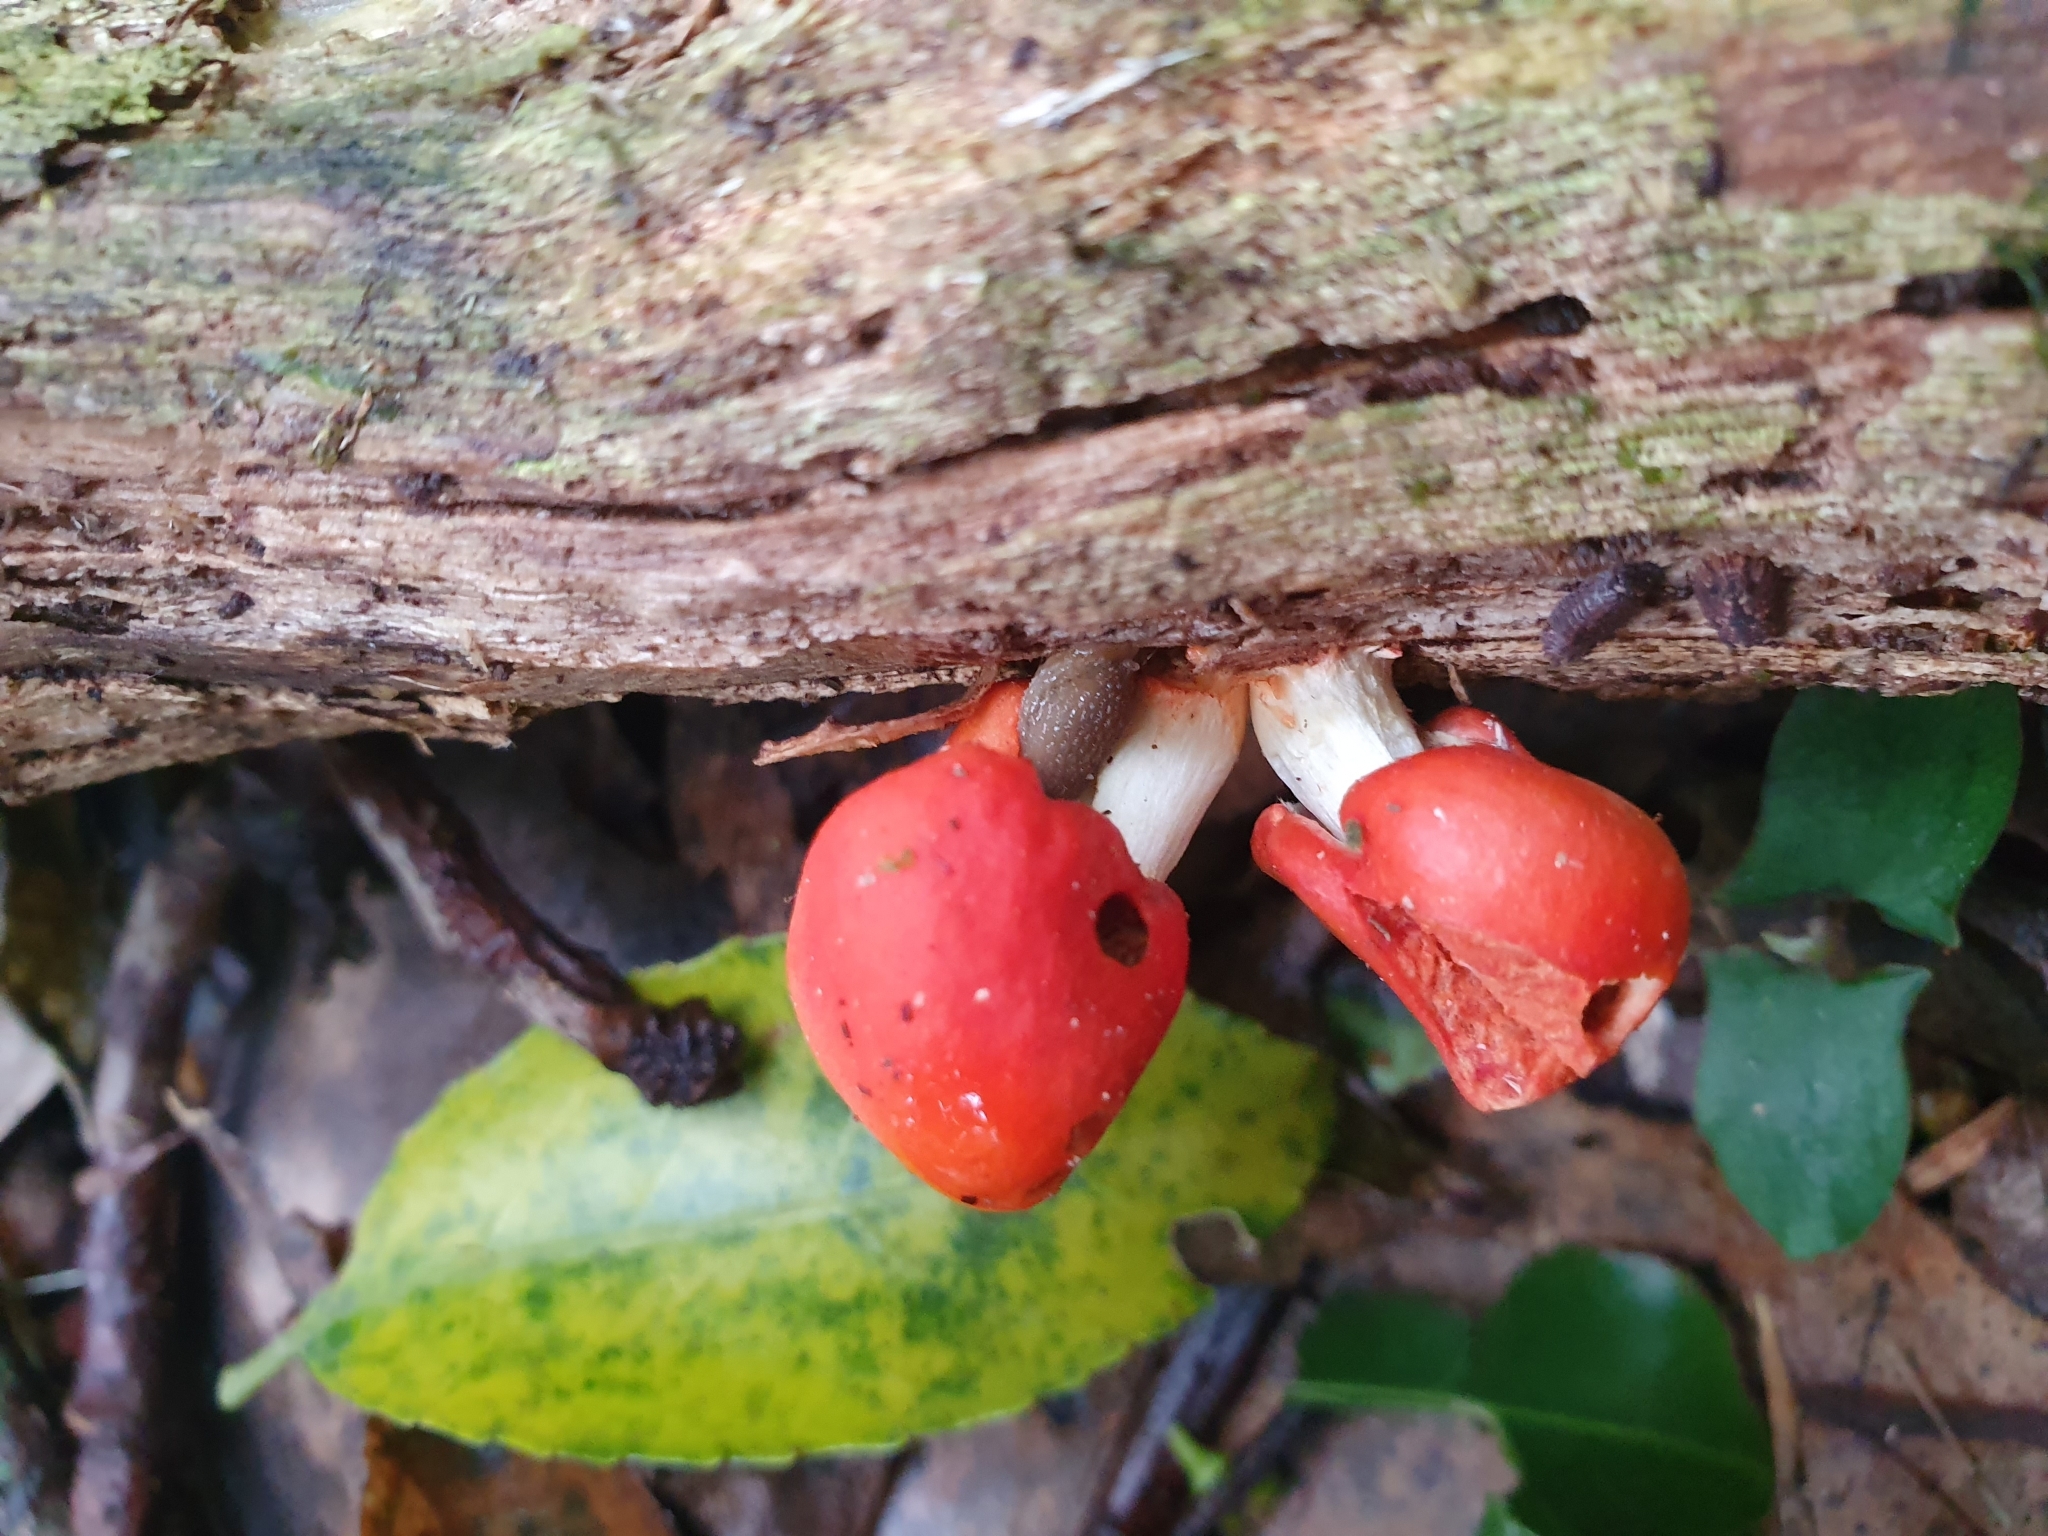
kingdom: Fungi
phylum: Basidiomycota
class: Agaricomycetes
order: Agaricales
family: Strophariaceae
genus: Leratiomyces
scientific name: Leratiomyces erythrocephalus
